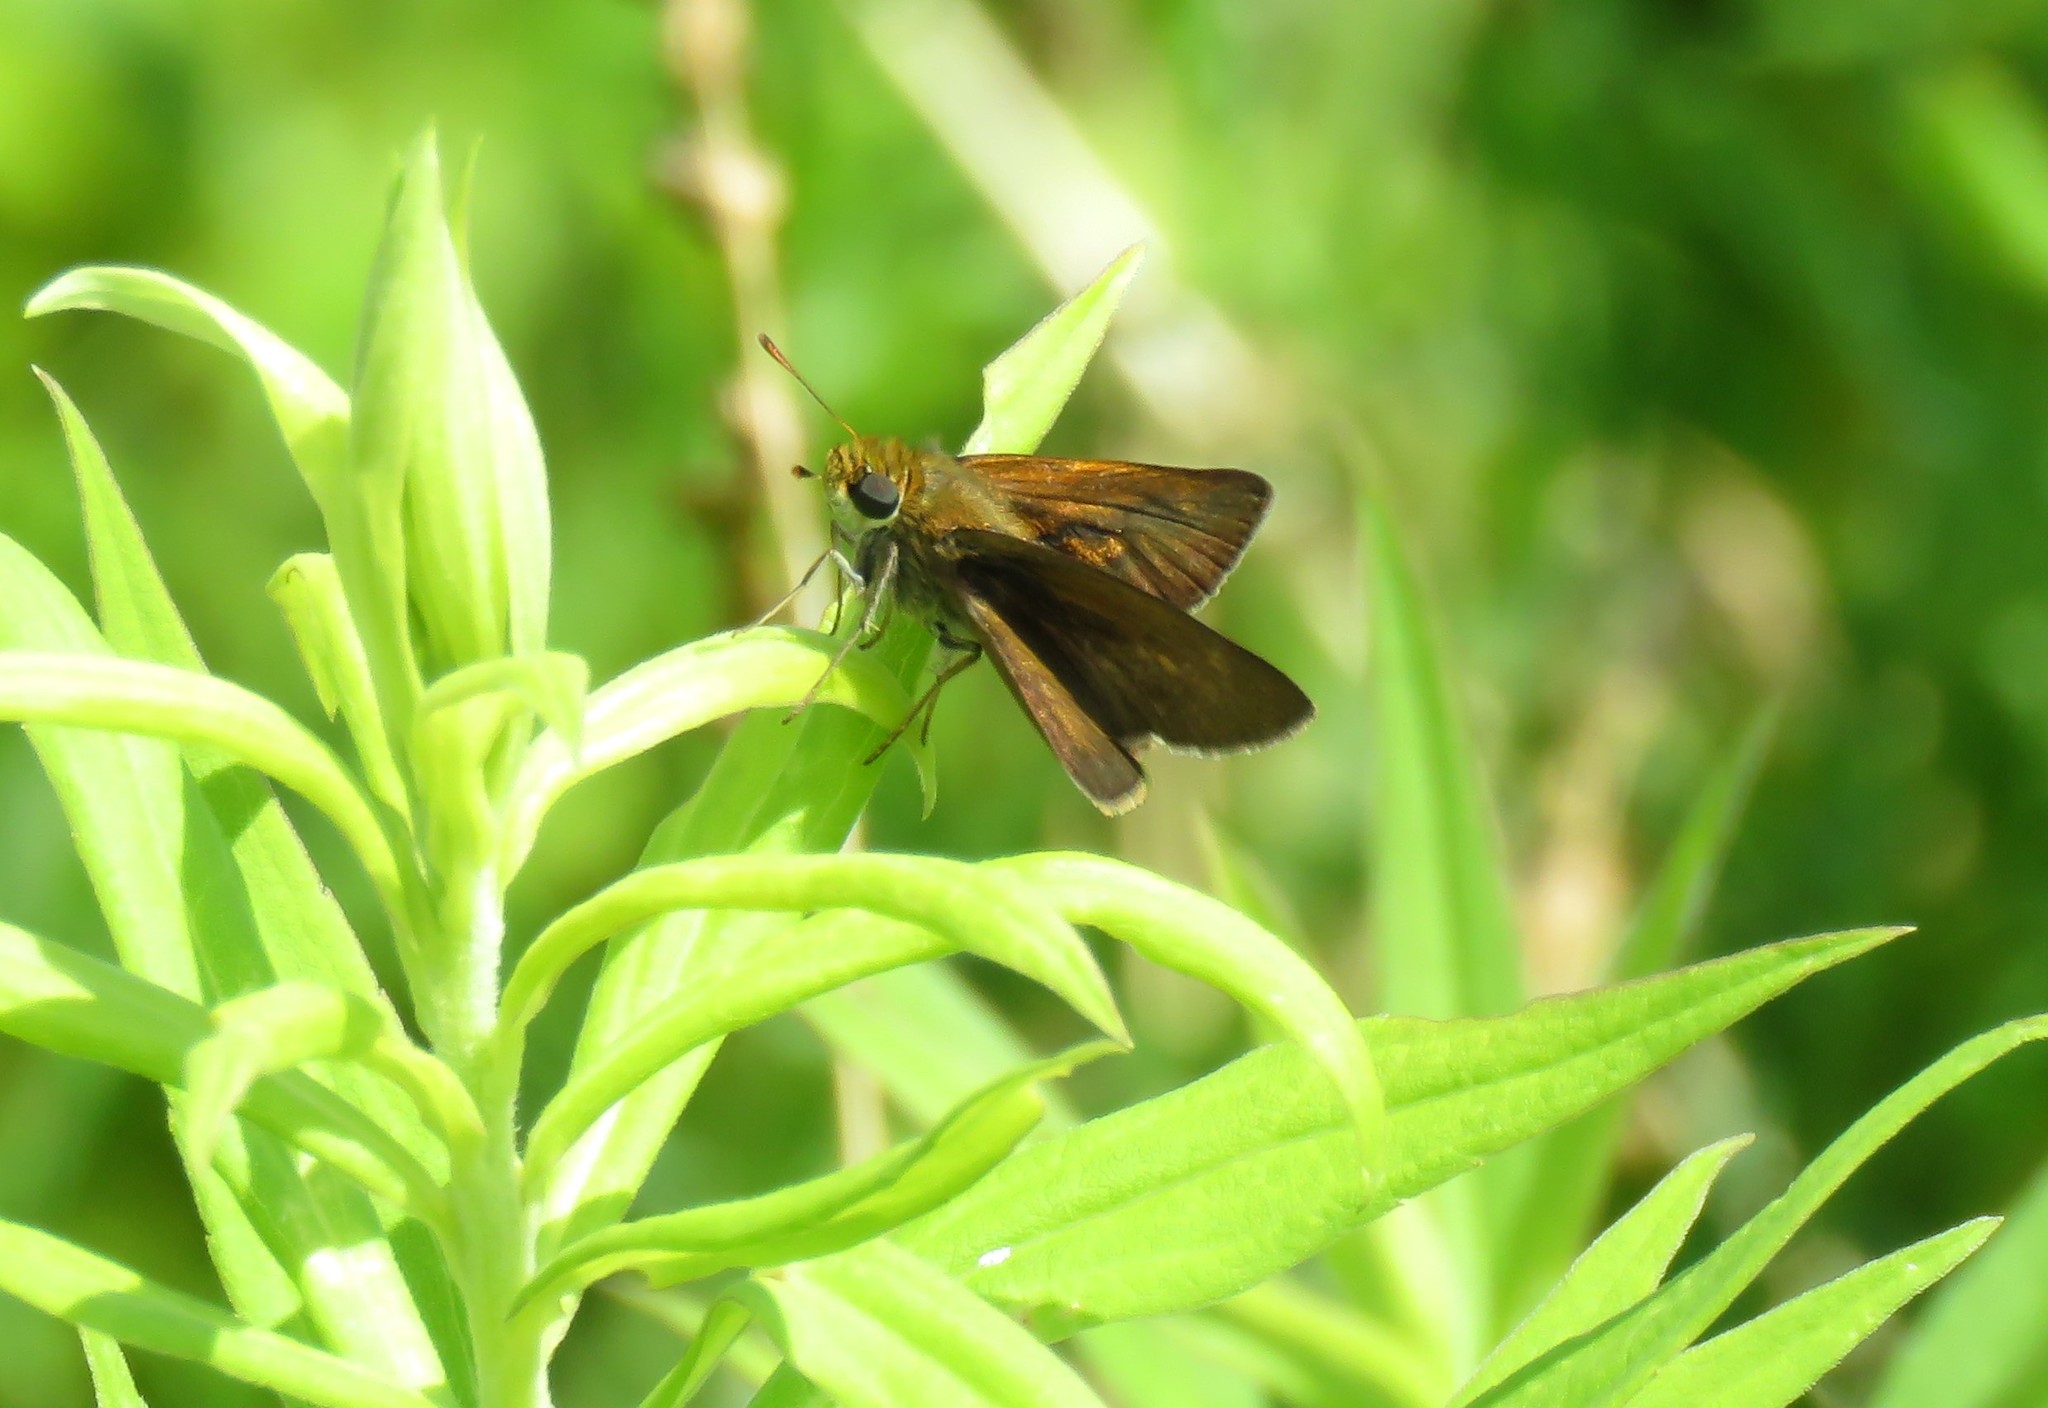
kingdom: Animalia
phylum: Arthropoda
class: Insecta
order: Lepidoptera
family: Hesperiidae
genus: Euphyes
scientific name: Euphyes vestris
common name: Dun skipper
